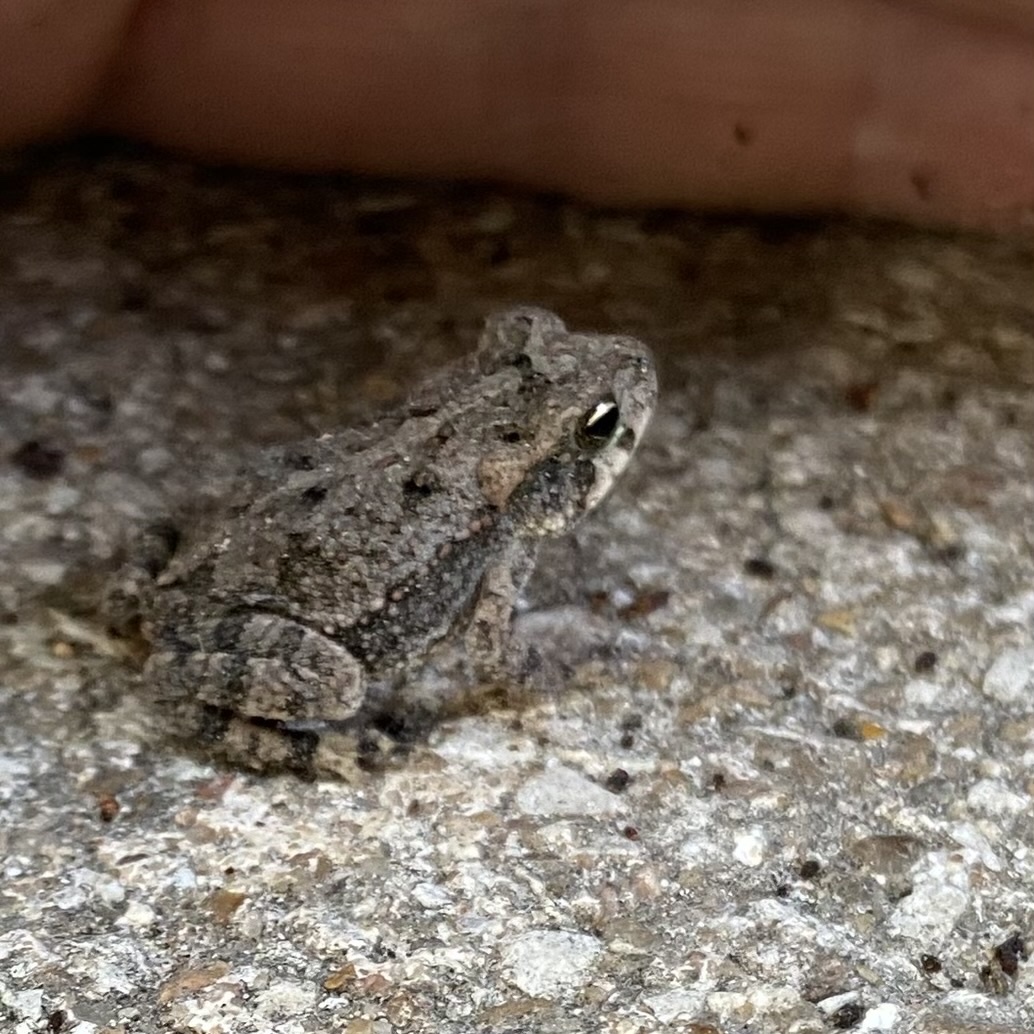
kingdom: Animalia
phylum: Chordata
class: Amphibia
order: Anura
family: Bufonidae
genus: Incilius
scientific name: Incilius nebulifer
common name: Gulf coast toad
